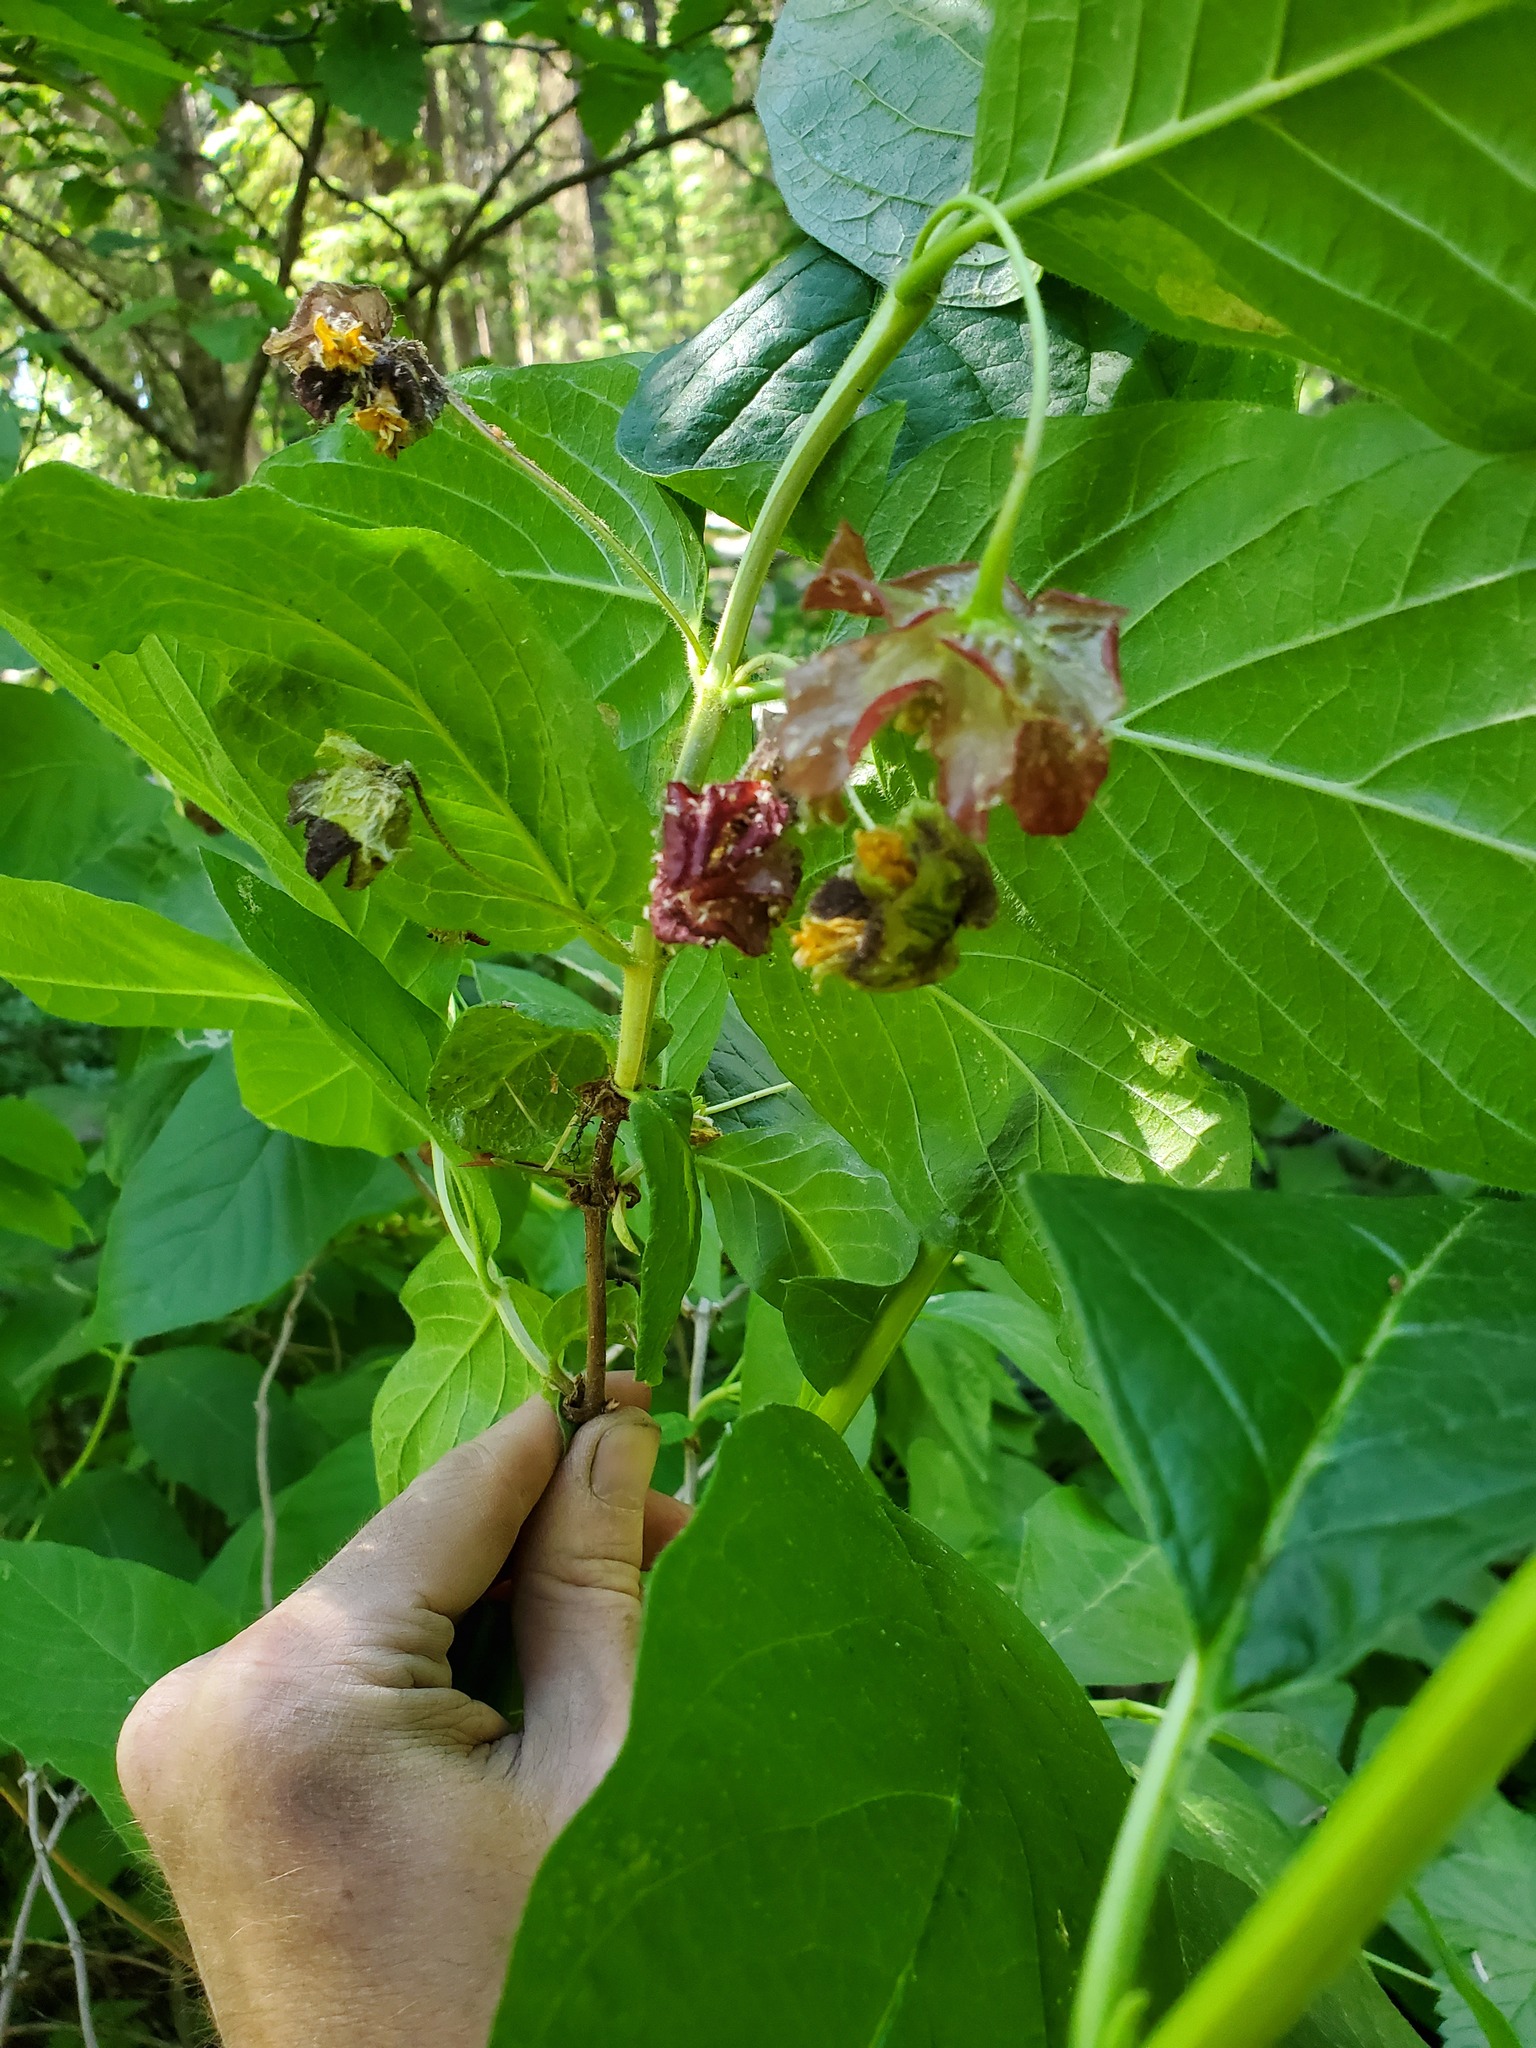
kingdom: Plantae
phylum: Tracheophyta
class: Magnoliopsida
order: Dipsacales
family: Caprifoliaceae
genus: Lonicera
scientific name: Lonicera involucrata
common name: Californian honeysuckle
